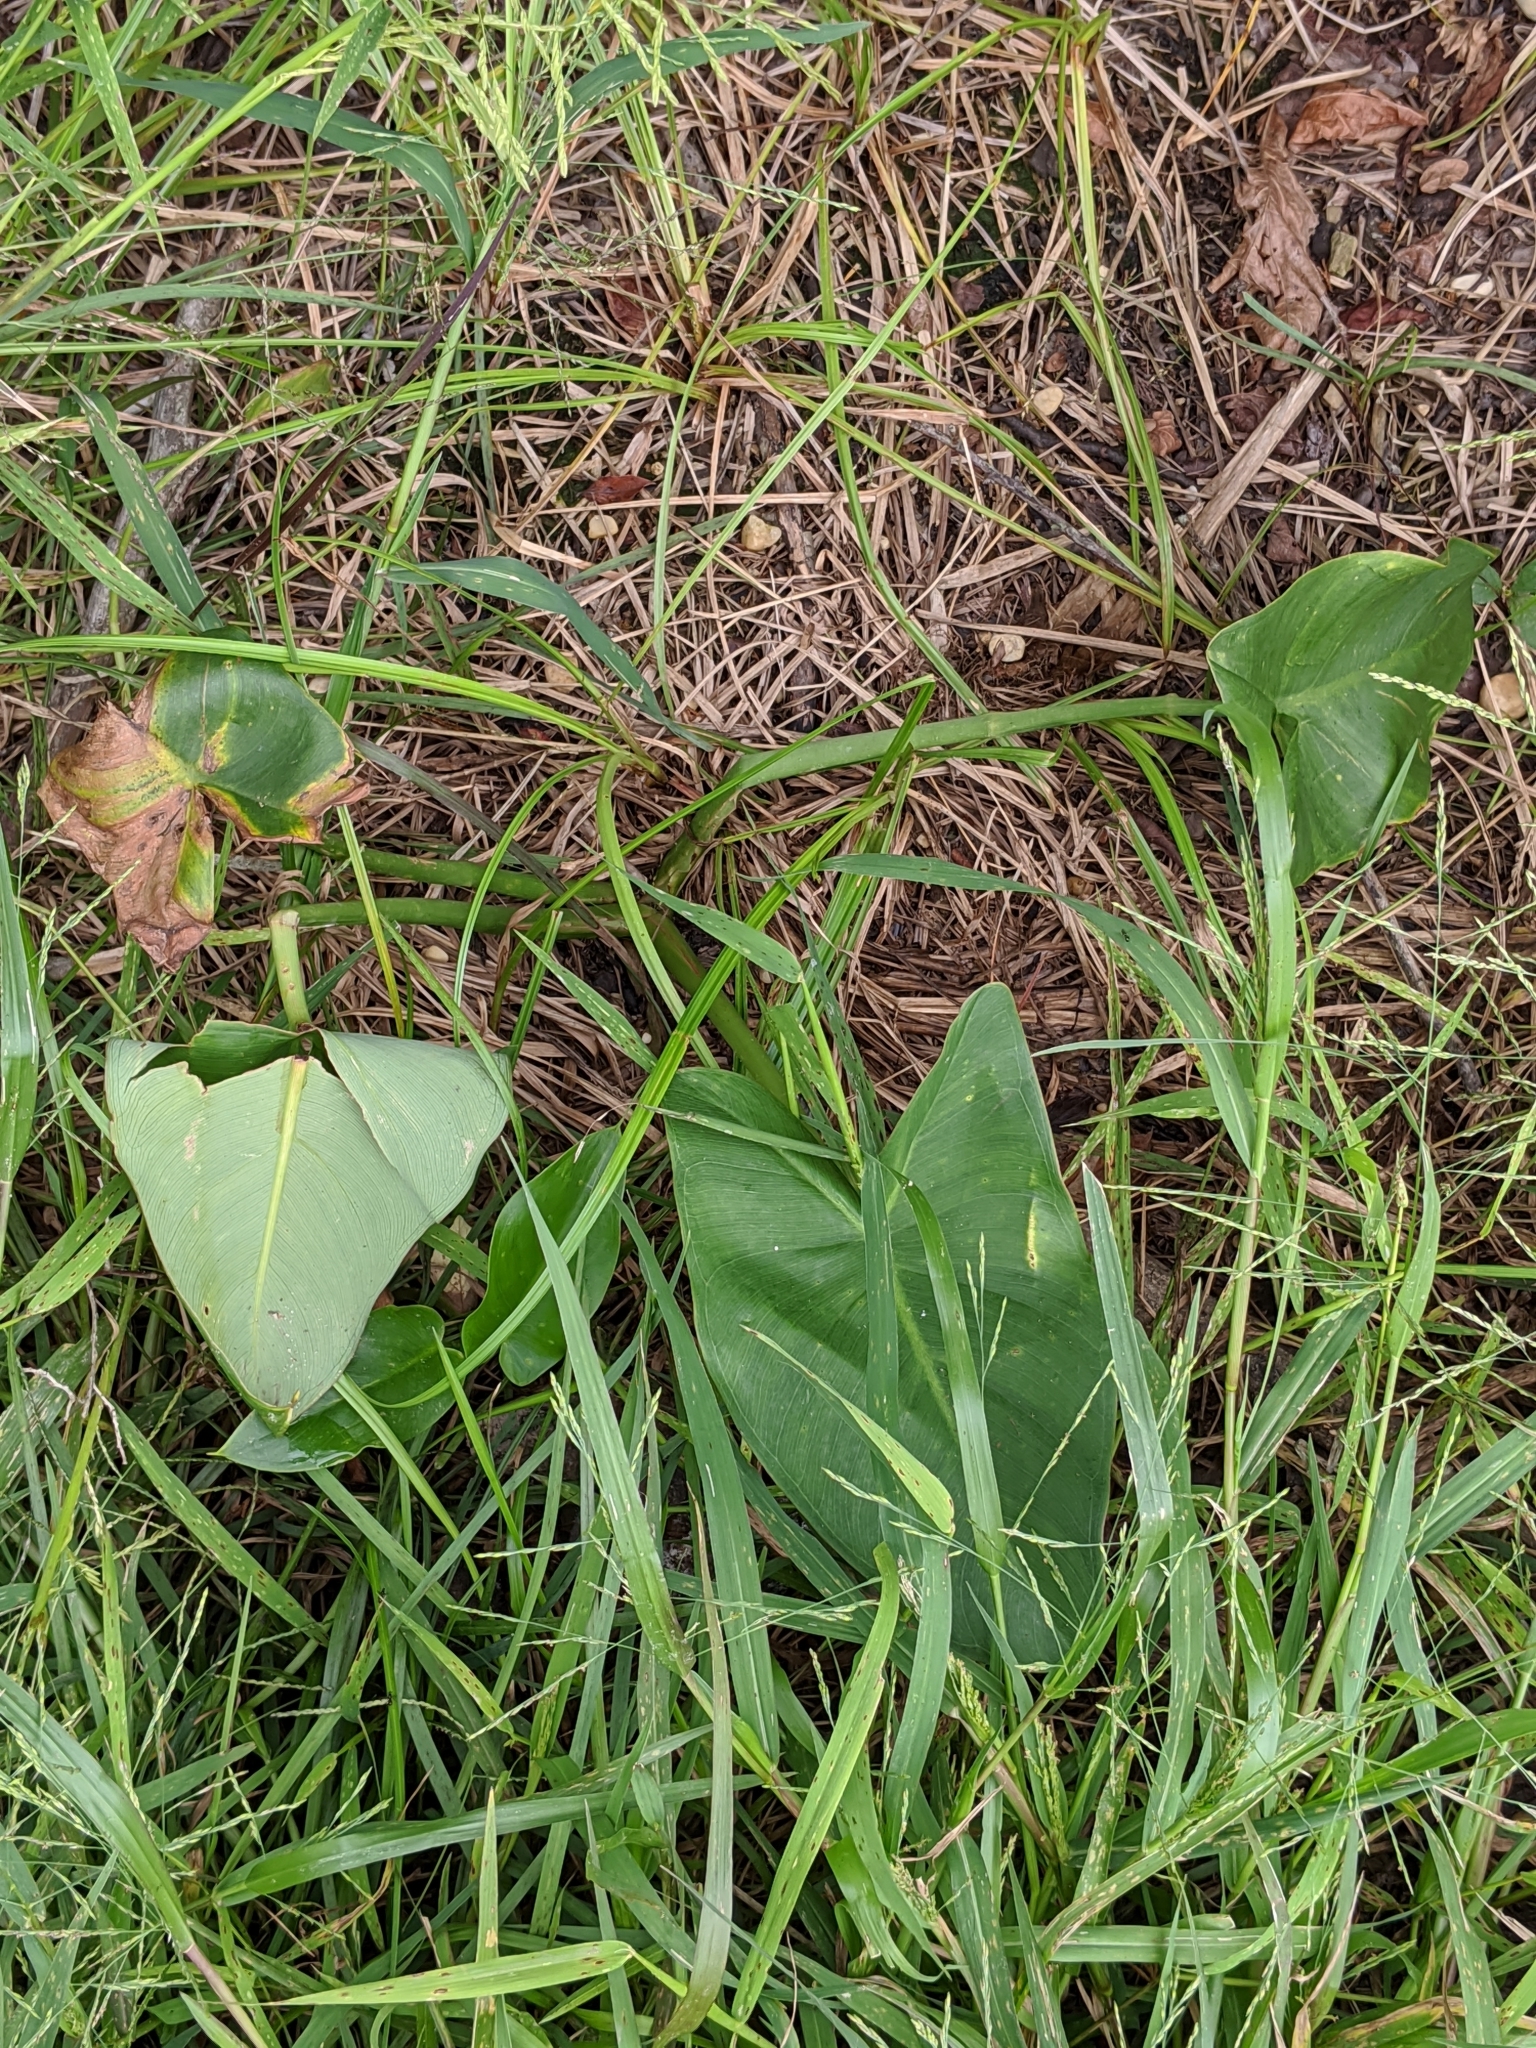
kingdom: Plantae
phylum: Tracheophyta
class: Liliopsida
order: Alismatales
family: Araceae
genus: Peltandra
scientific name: Peltandra virginica
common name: Arrow arum
